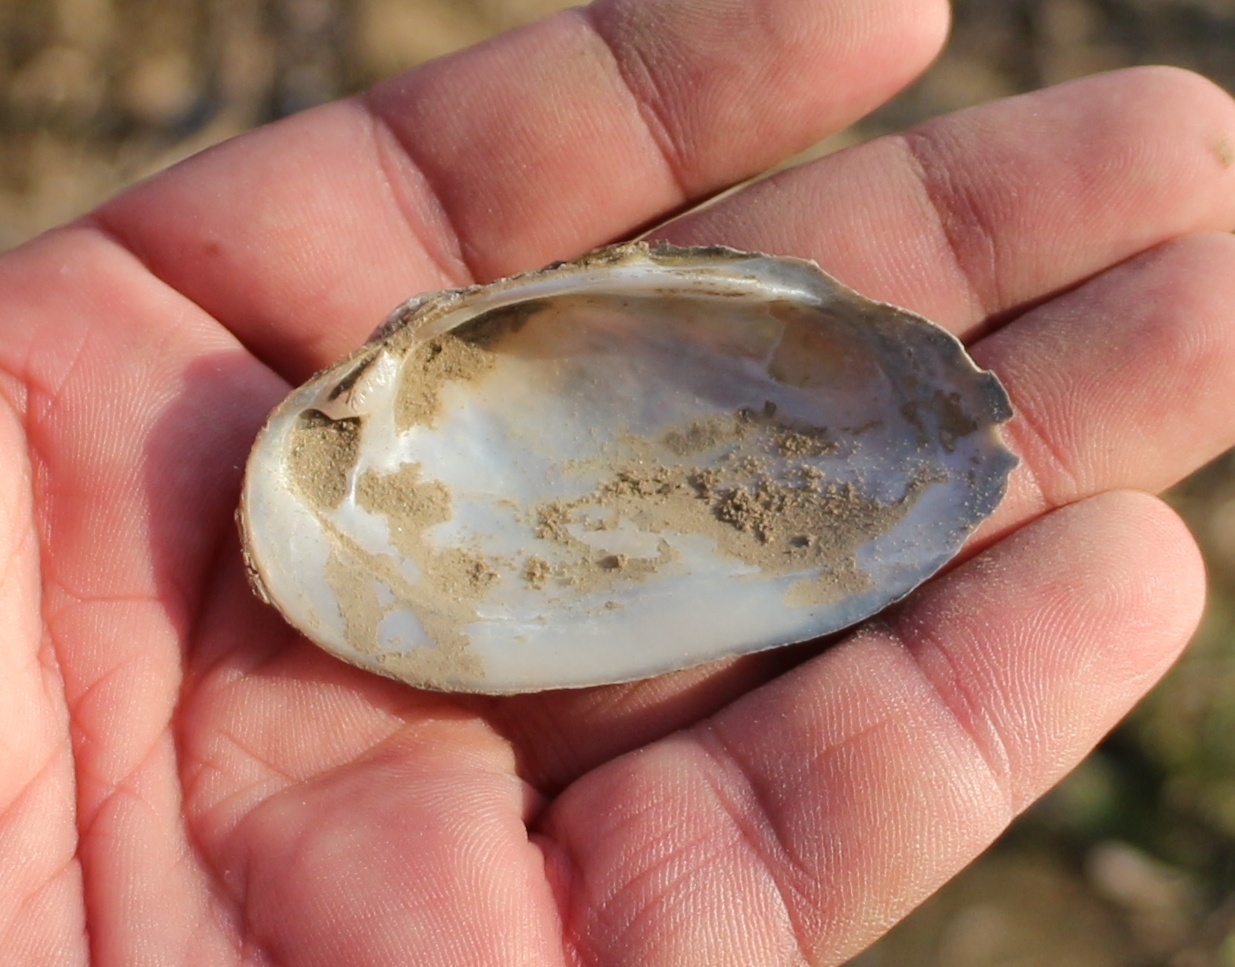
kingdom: Animalia
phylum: Mollusca
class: Bivalvia
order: Unionida
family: Unionidae
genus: Unio
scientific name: Unio crassus
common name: Thick shelled river mussel
